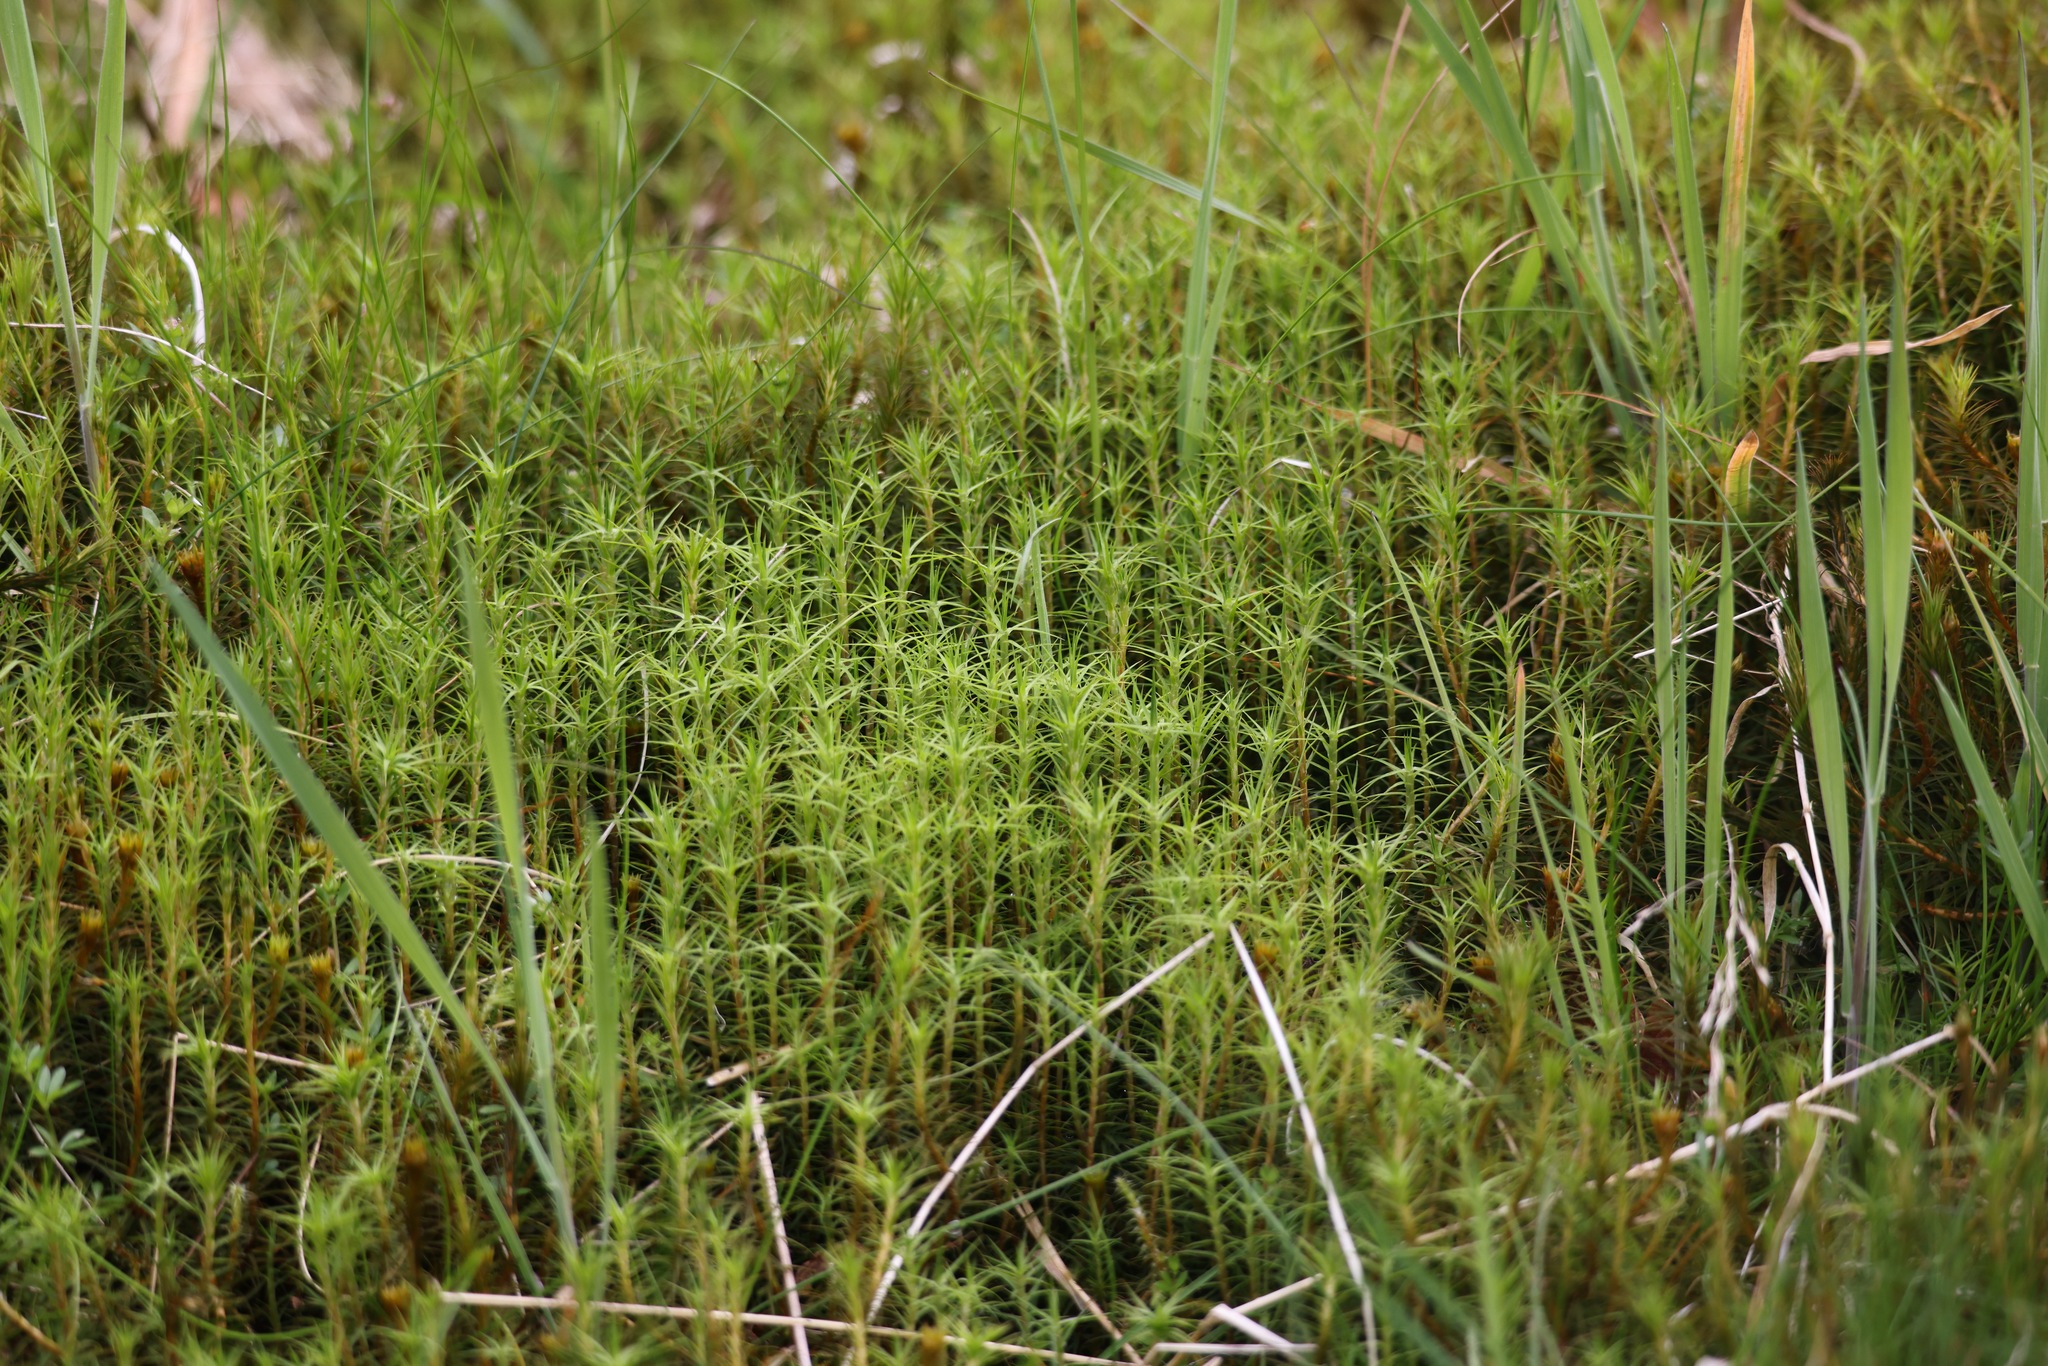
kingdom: Plantae
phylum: Bryophyta
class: Polytrichopsida
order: Polytrichales
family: Polytrichaceae
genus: Polytrichum
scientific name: Polytrichum commune
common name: Common haircap
